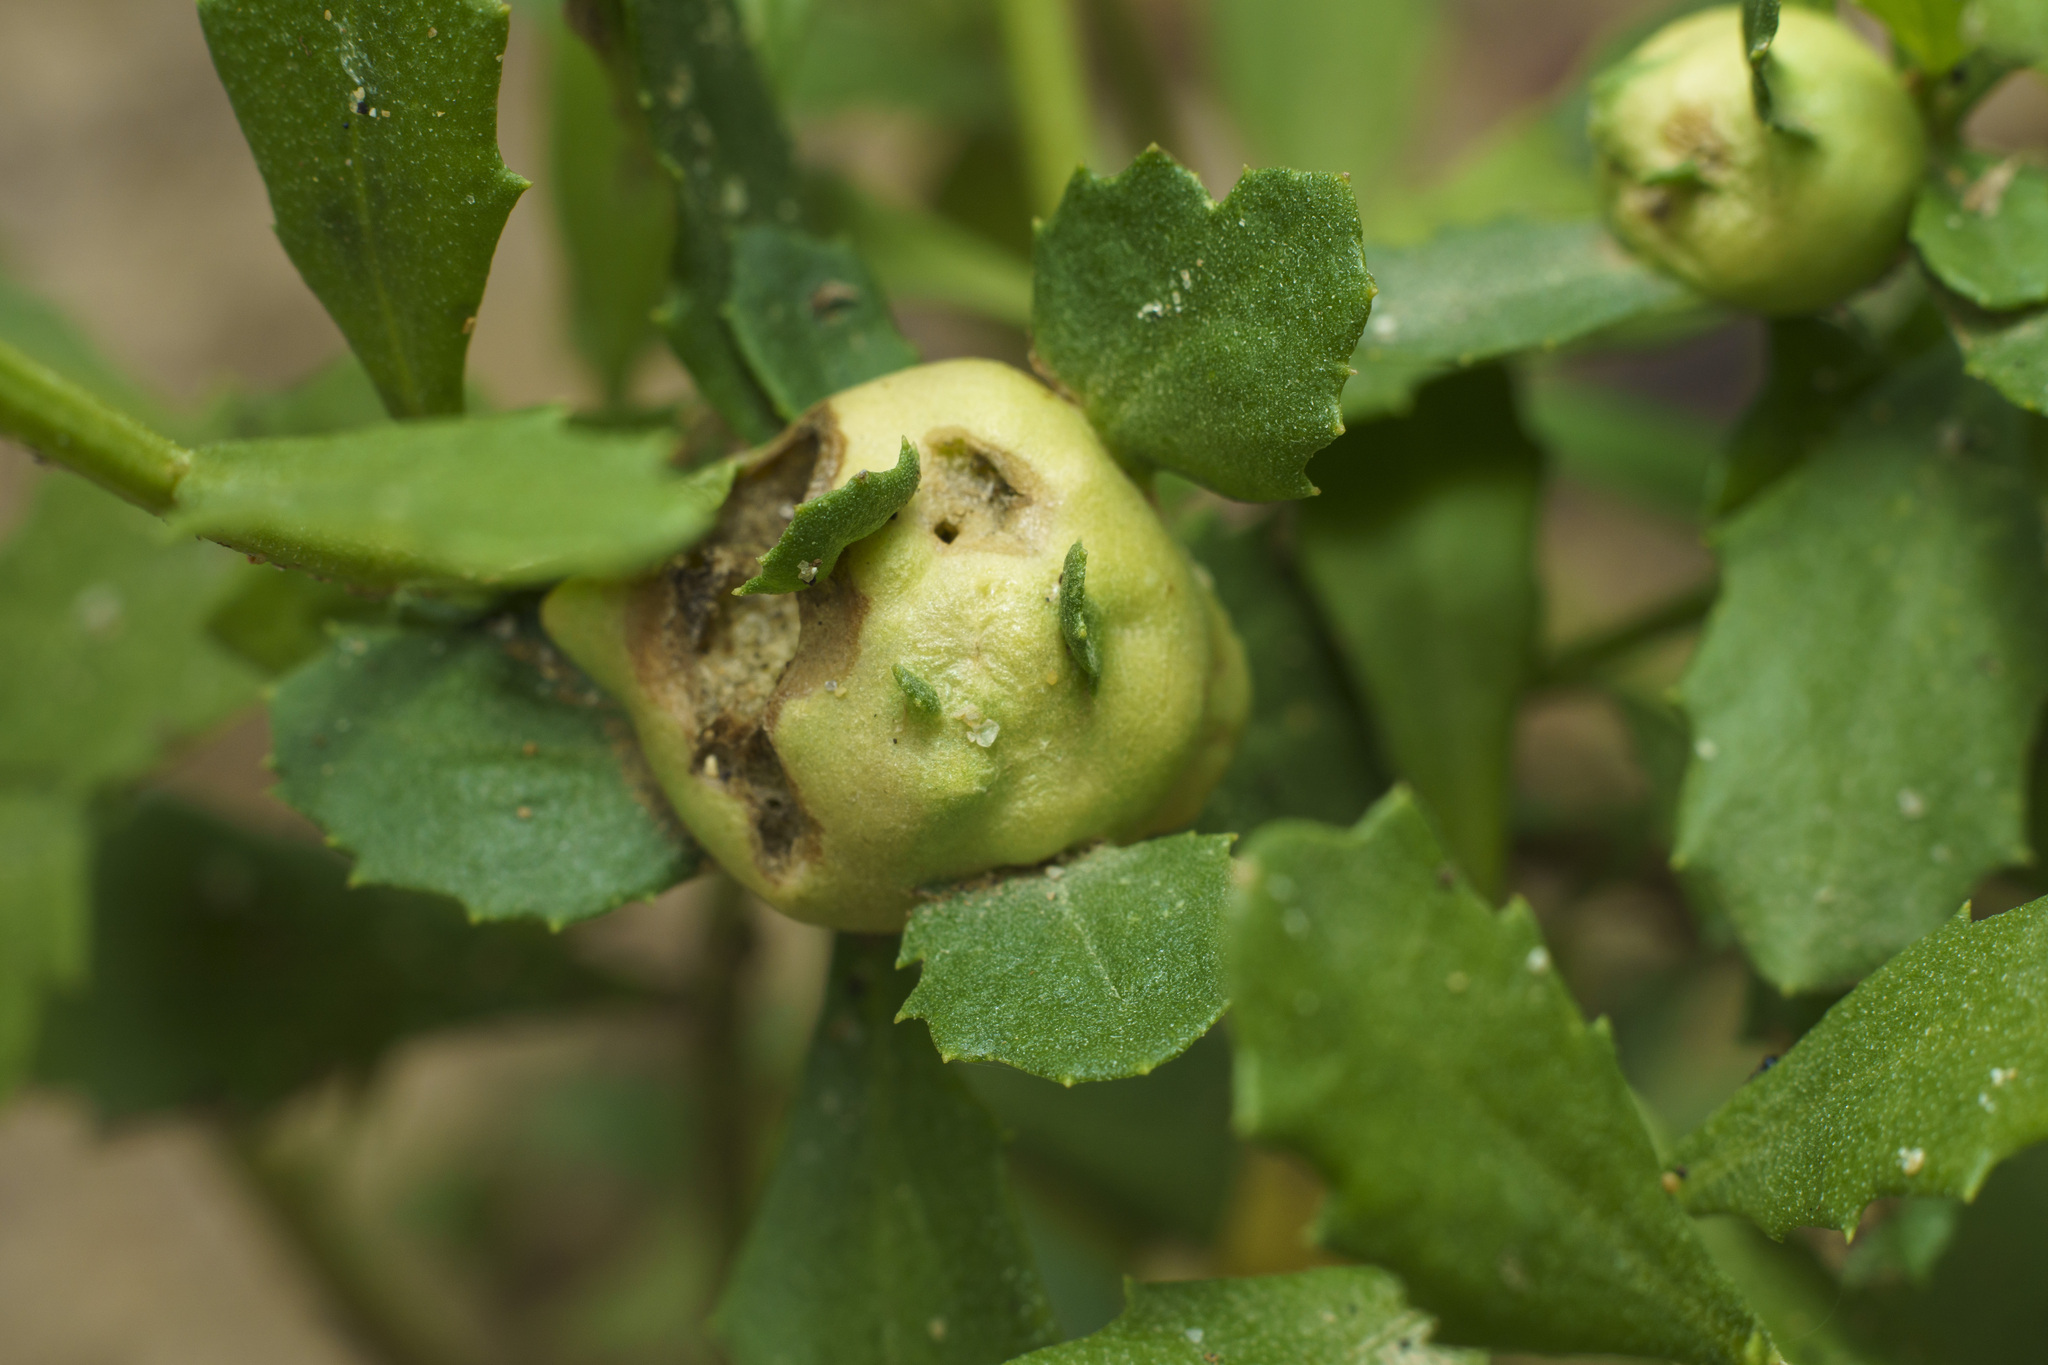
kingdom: Animalia
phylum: Arthropoda
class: Insecta
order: Diptera
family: Cecidomyiidae
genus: Rhopalomyia
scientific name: Rhopalomyia californica
